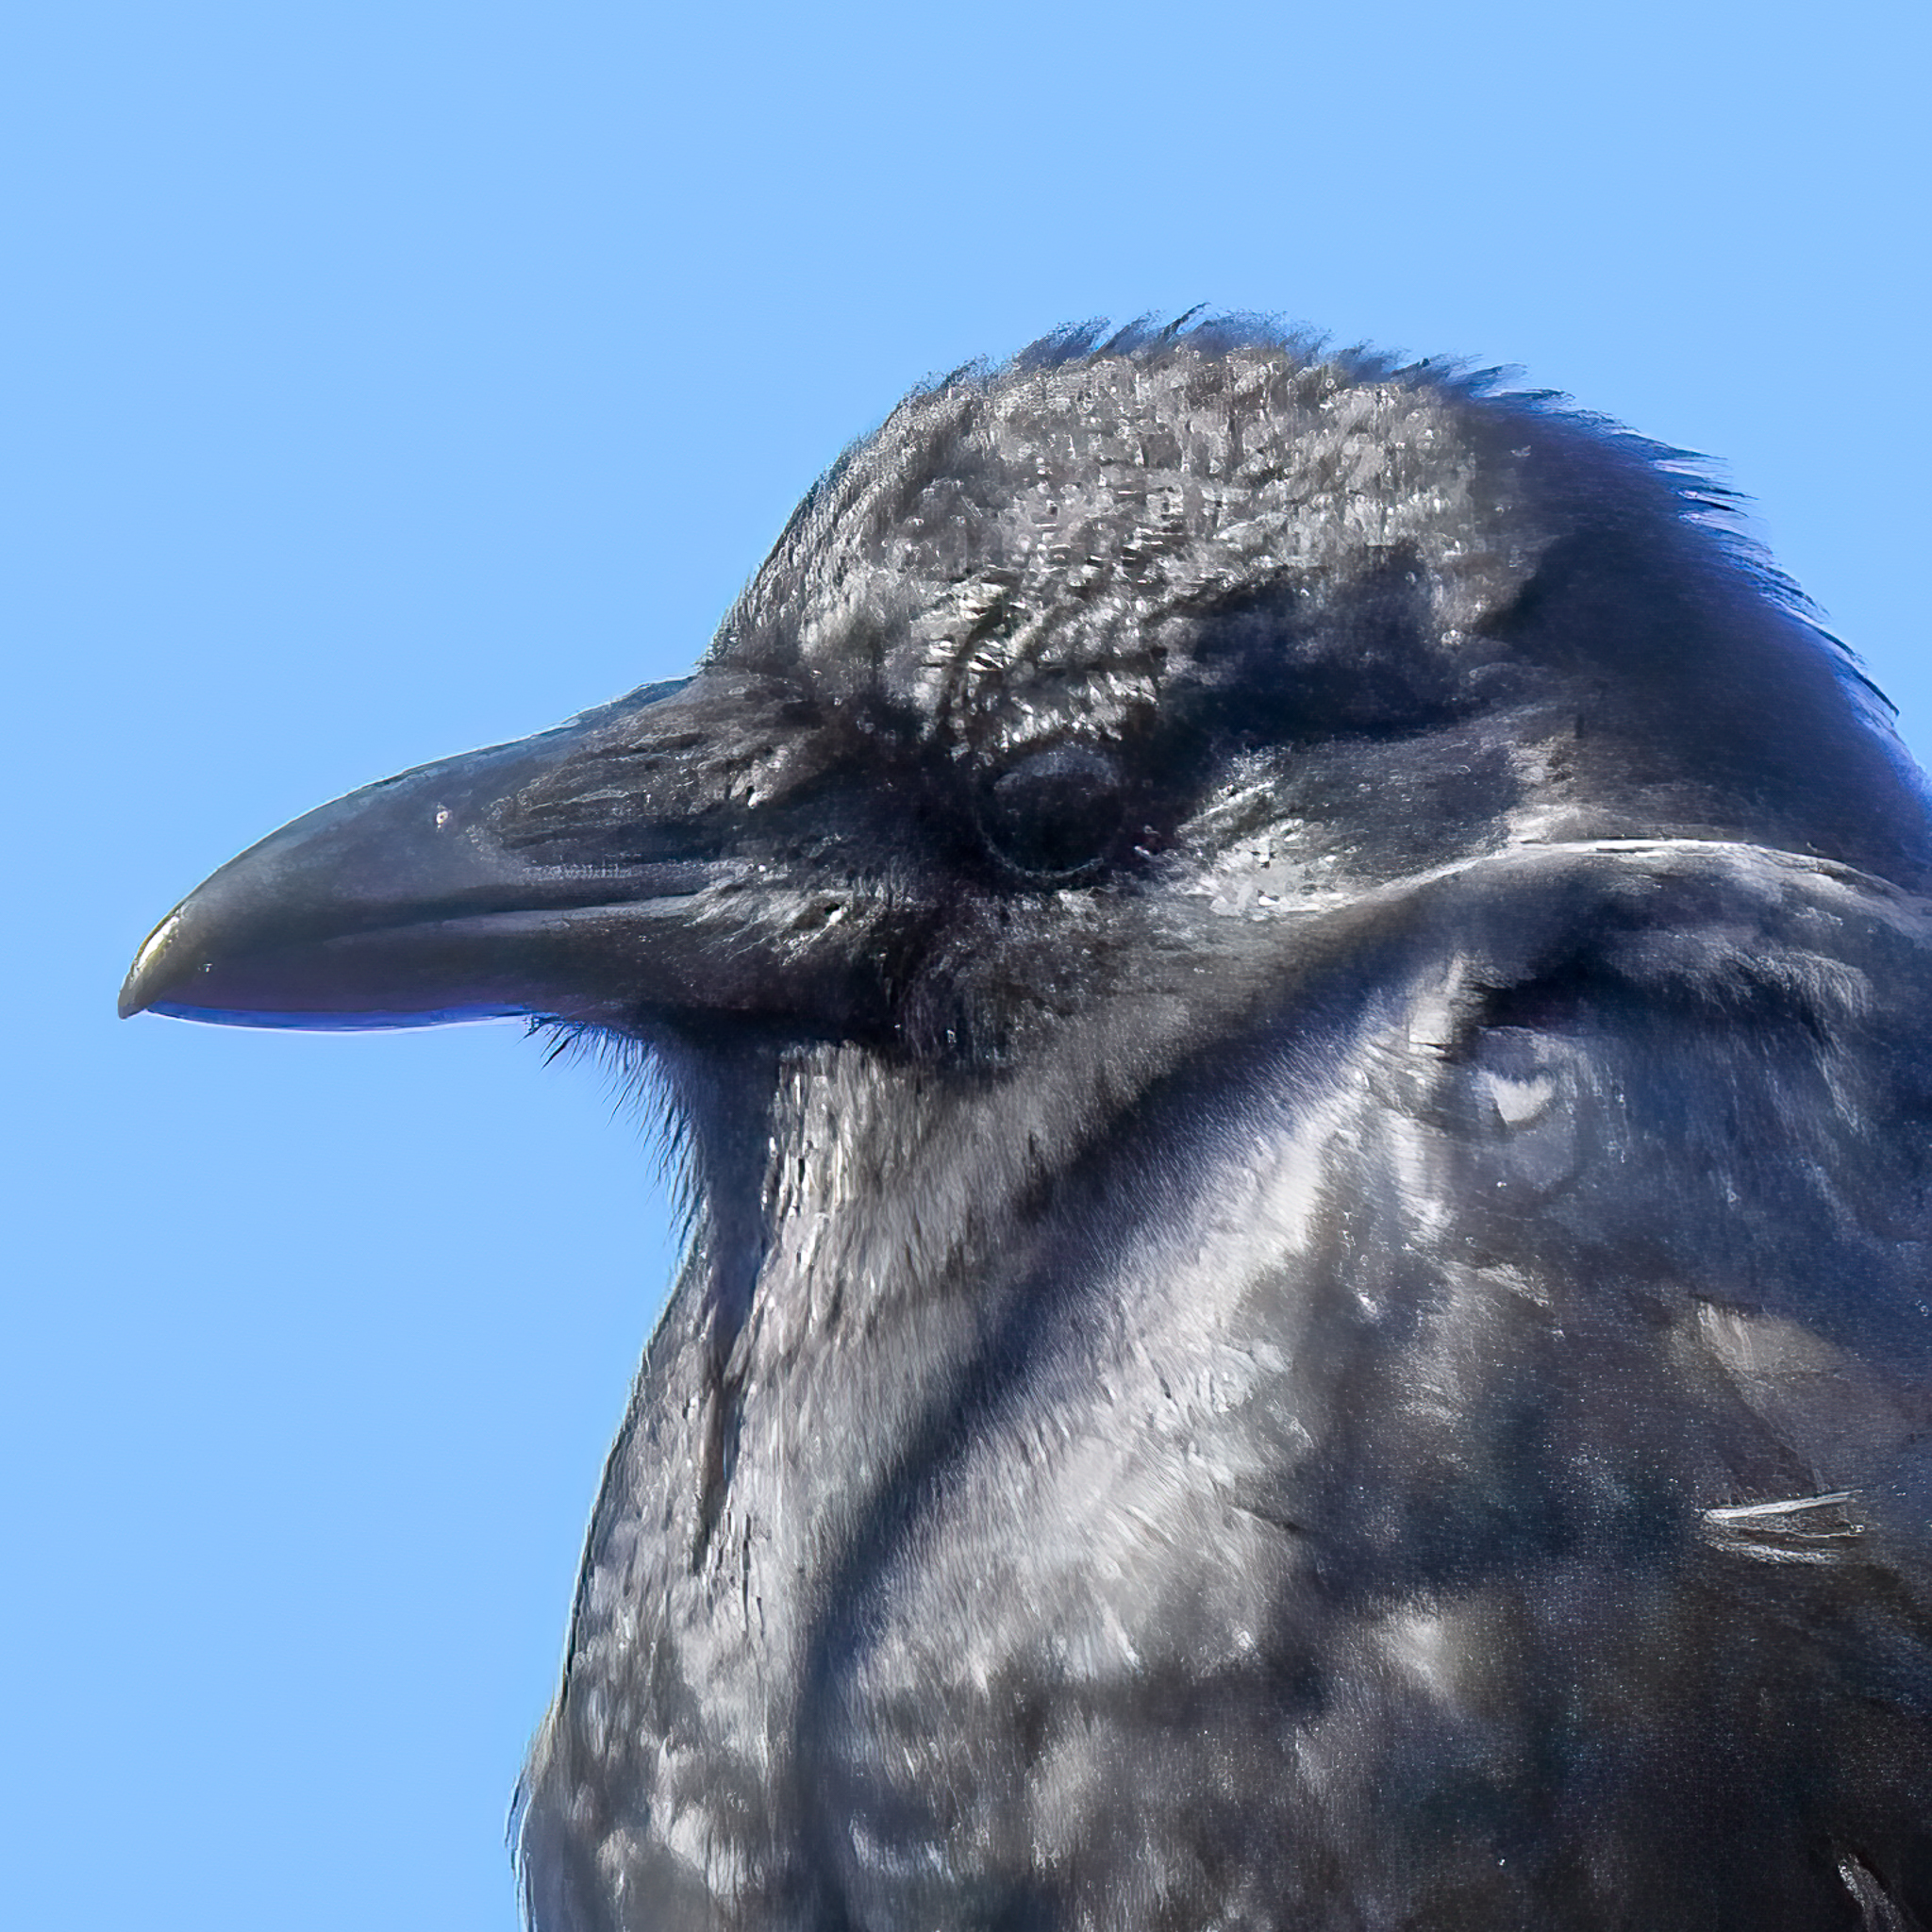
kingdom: Animalia
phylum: Chordata
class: Aves
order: Passeriformes
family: Corvidae
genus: Corvus
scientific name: Corvus ossifragus
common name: Fish crow
